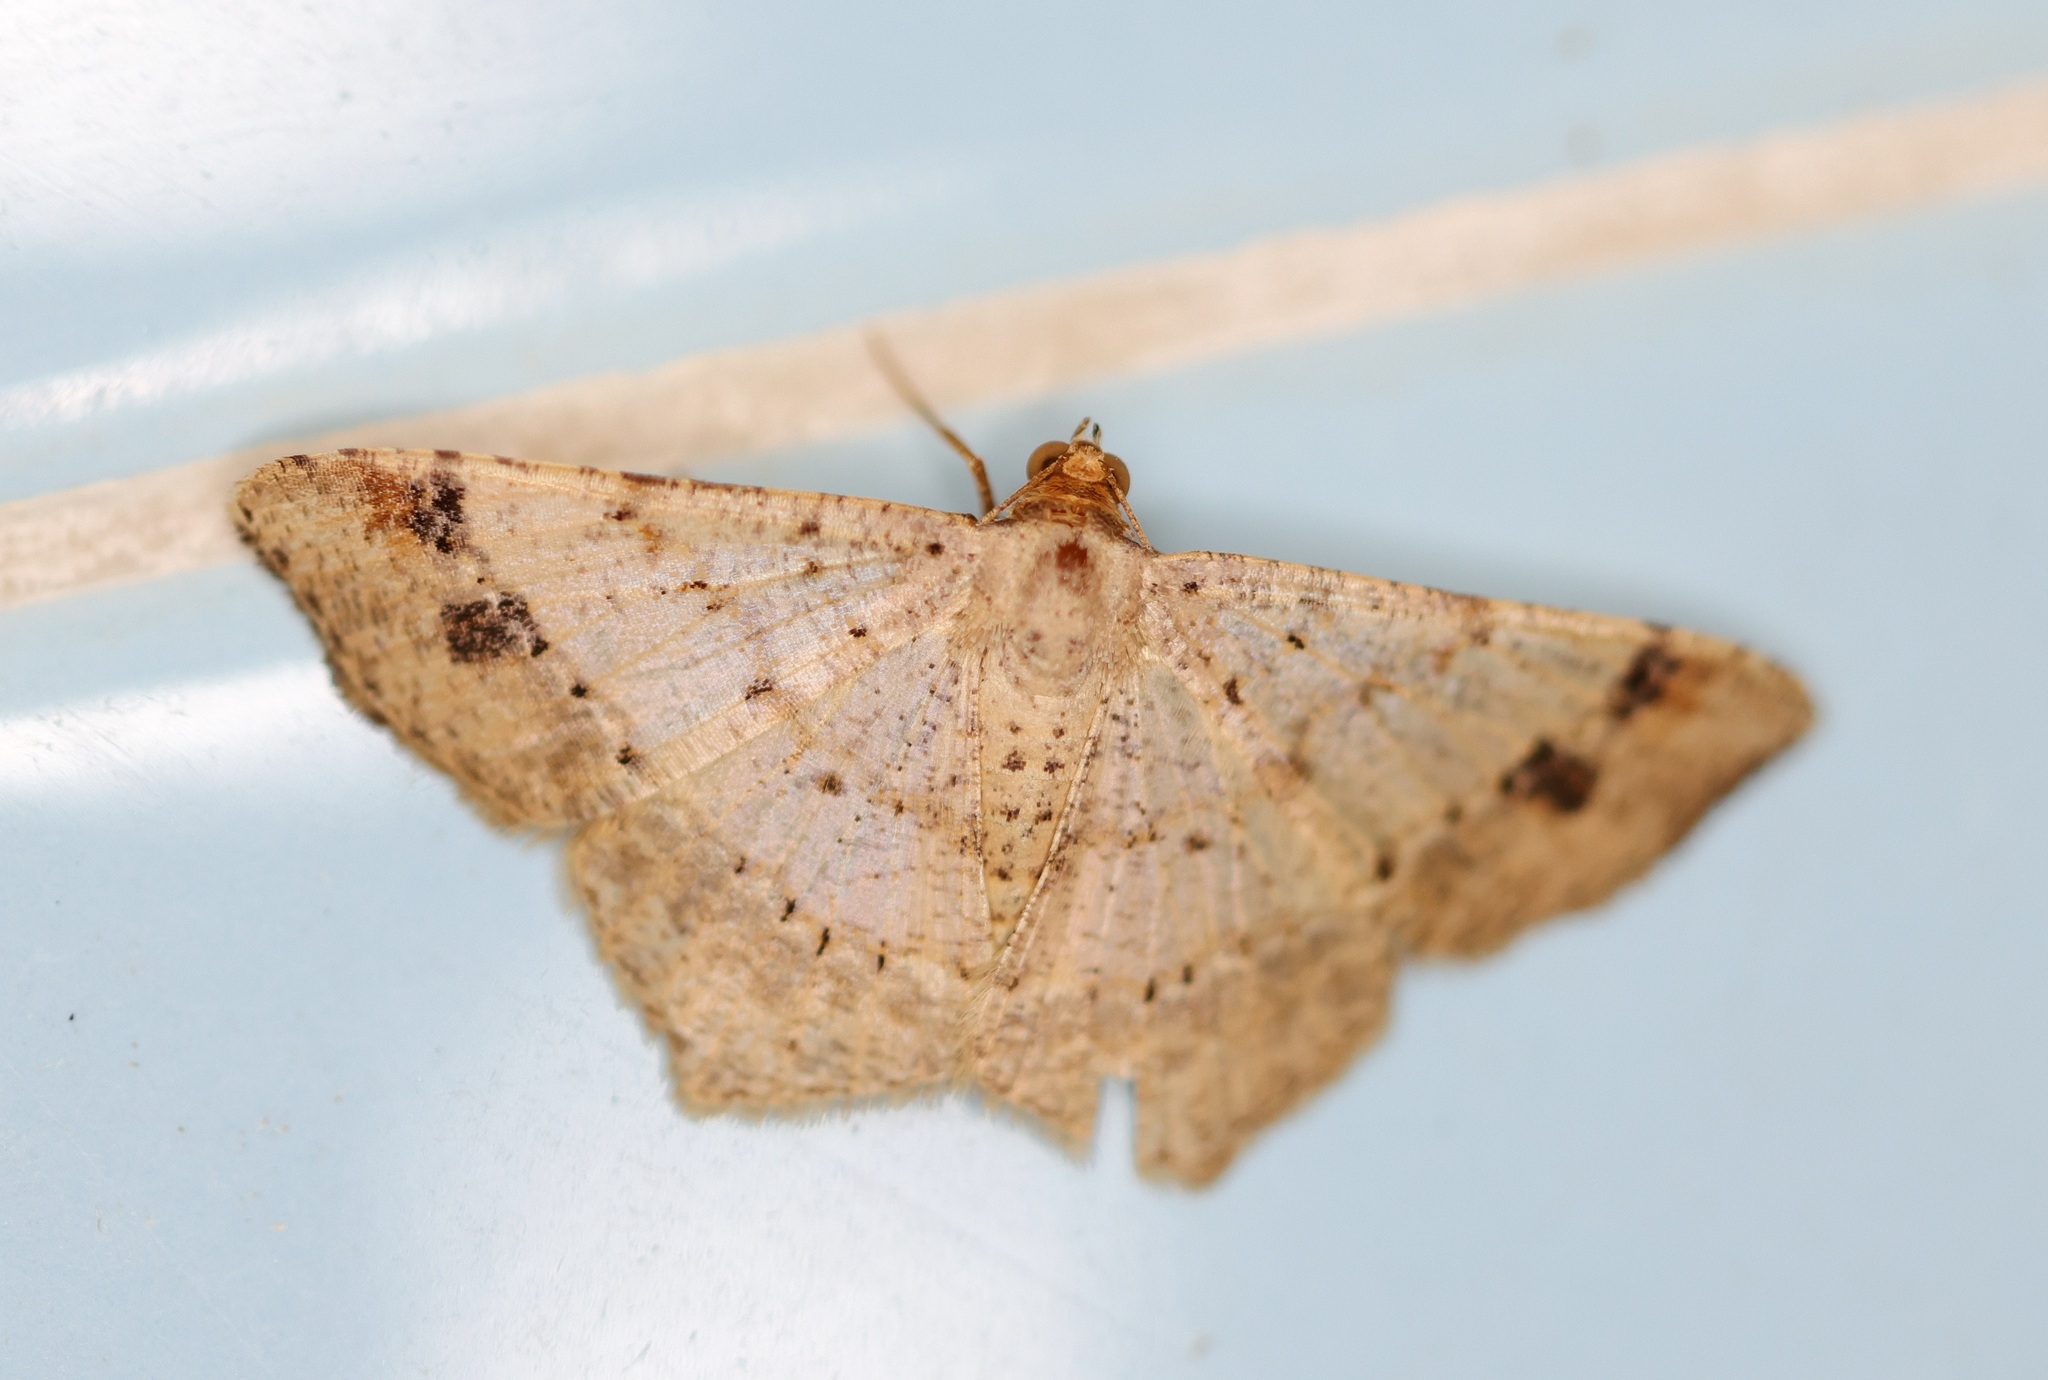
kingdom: Animalia
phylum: Arthropoda
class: Insecta
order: Lepidoptera
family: Geometridae
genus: Macaria
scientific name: Macaria abydata
